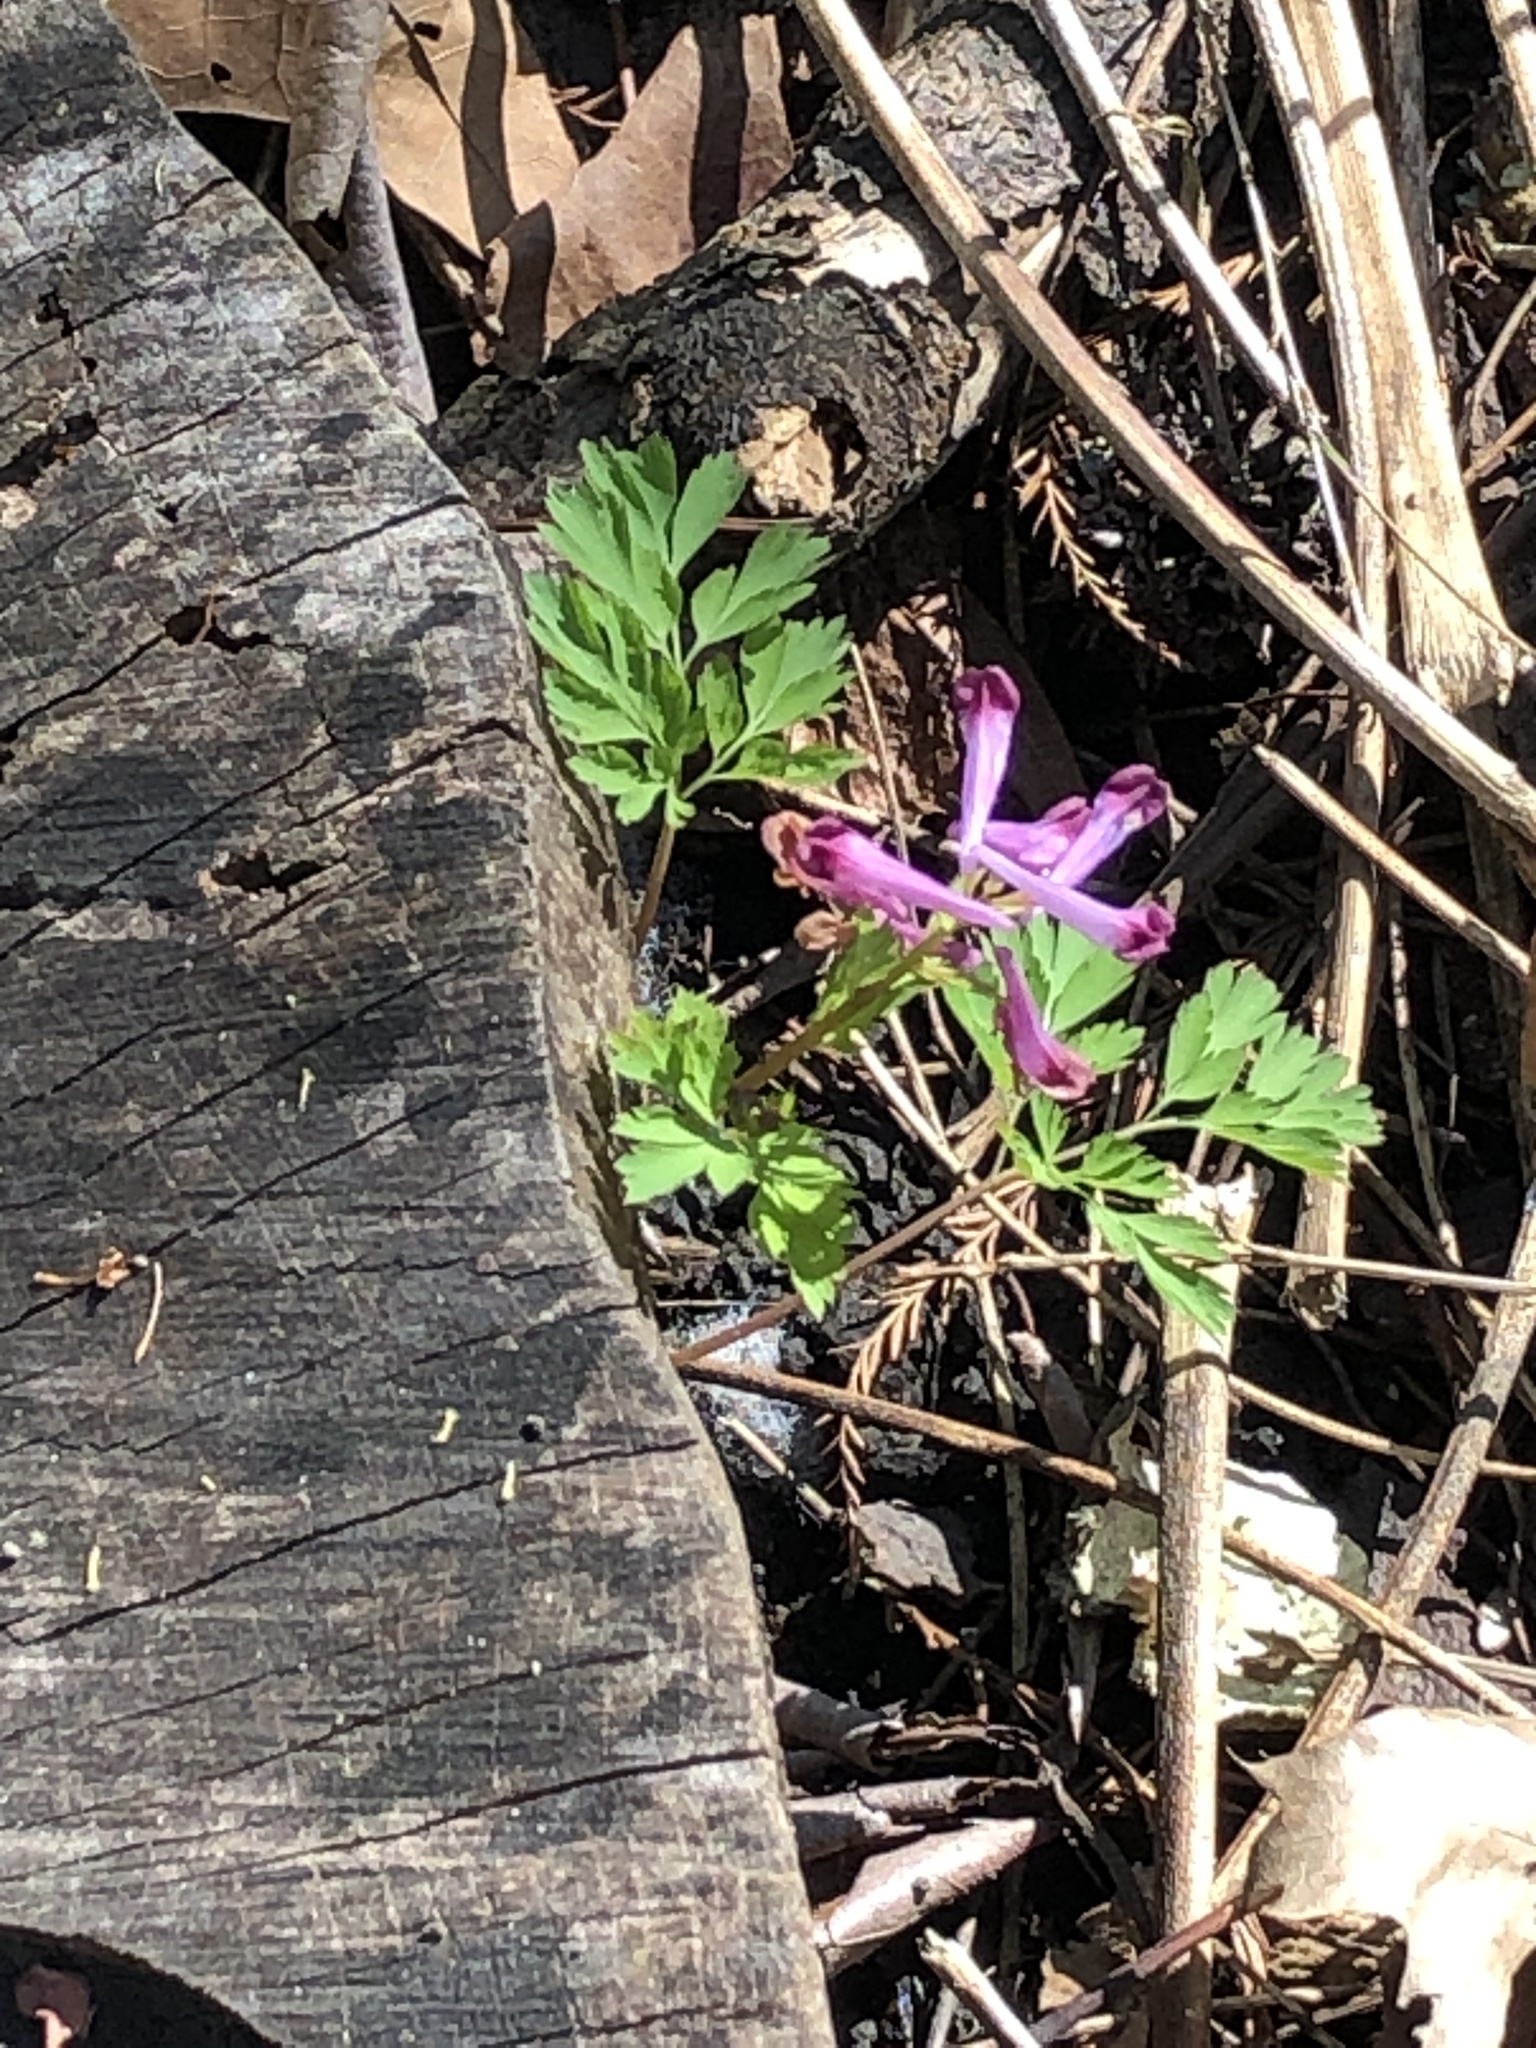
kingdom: Plantae
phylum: Tracheophyta
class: Magnoliopsida
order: Ranunculales
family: Papaveraceae
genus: Corydalis
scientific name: Corydalis incisa
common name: Incised fumewort
